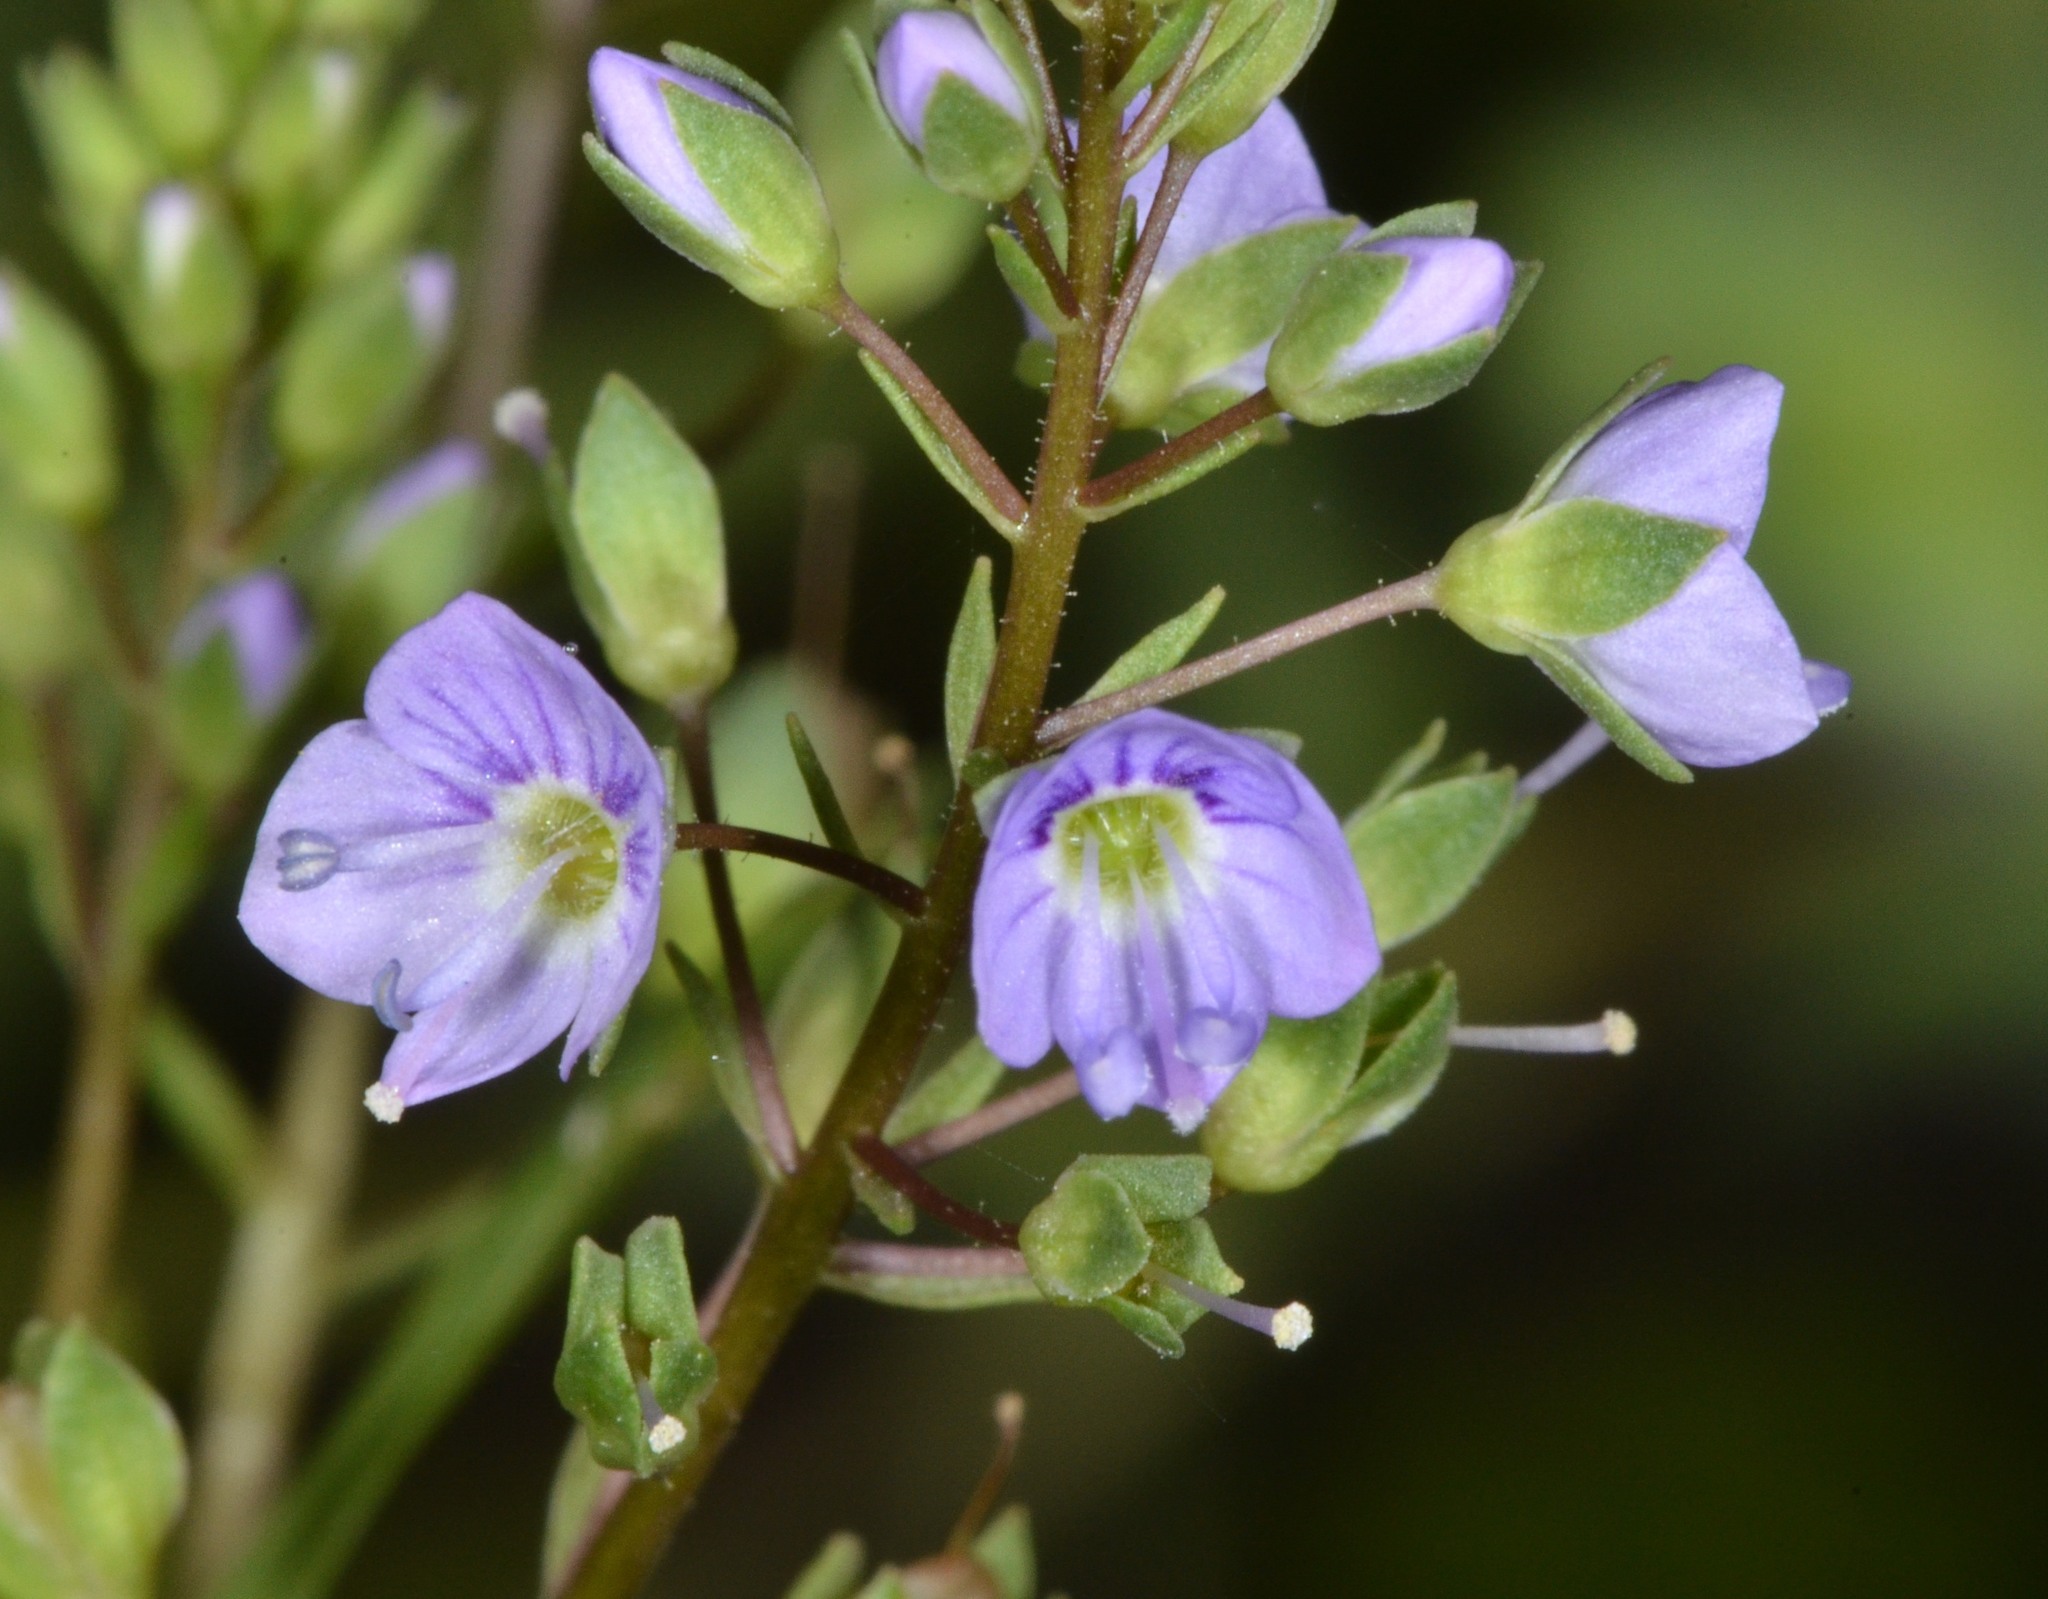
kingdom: Plantae
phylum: Tracheophyta
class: Magnoliopsida
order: Lamiales
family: Plantaginaceae
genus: Veronica
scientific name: Veronica anagallis-aquatica
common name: Water speedwell
